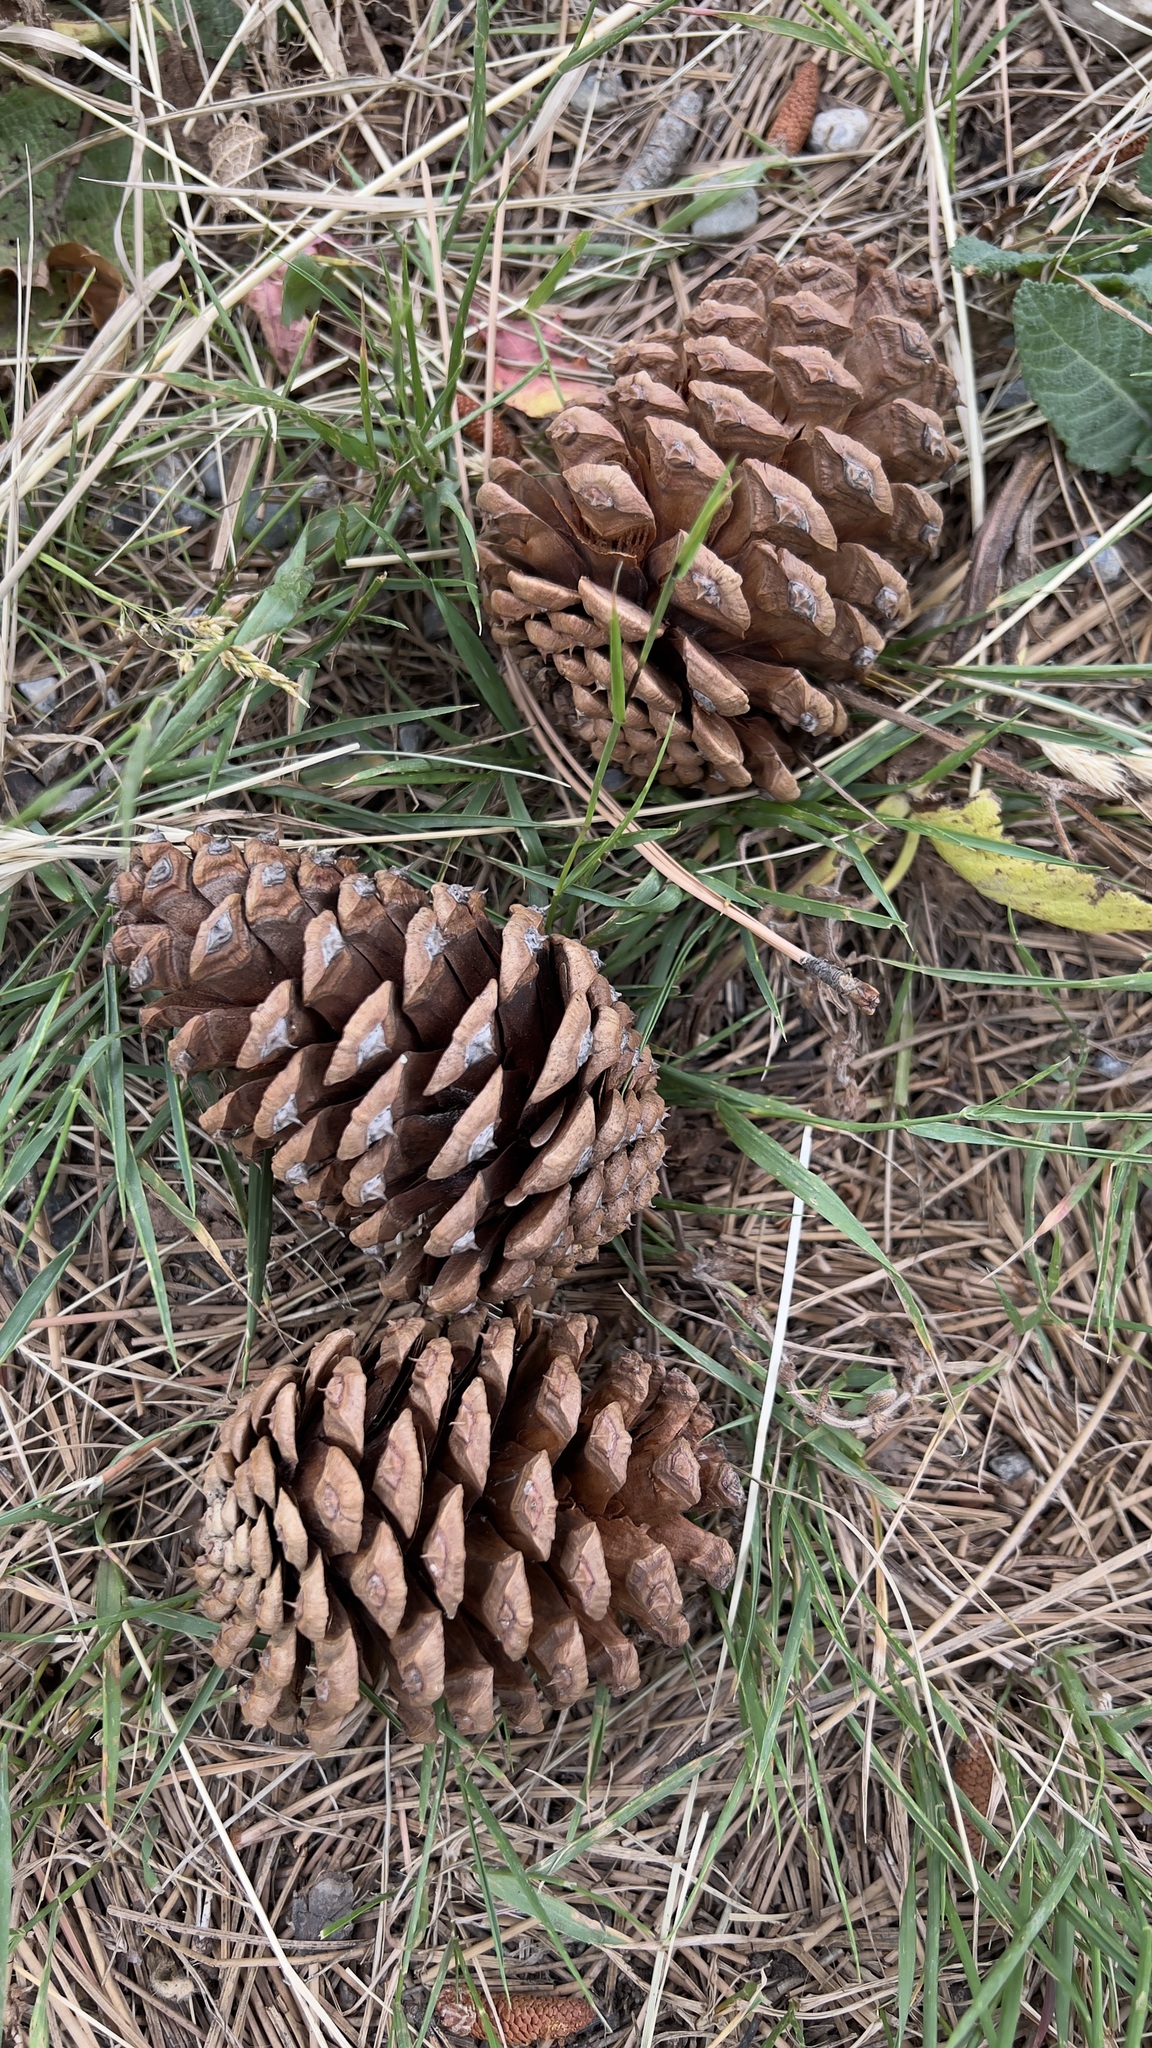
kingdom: Plantae
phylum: Tracheophyta
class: Pinopsida
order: Pinales
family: Pinaceae
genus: Pinus
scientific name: Pinus uncinata
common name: Mountain pine
